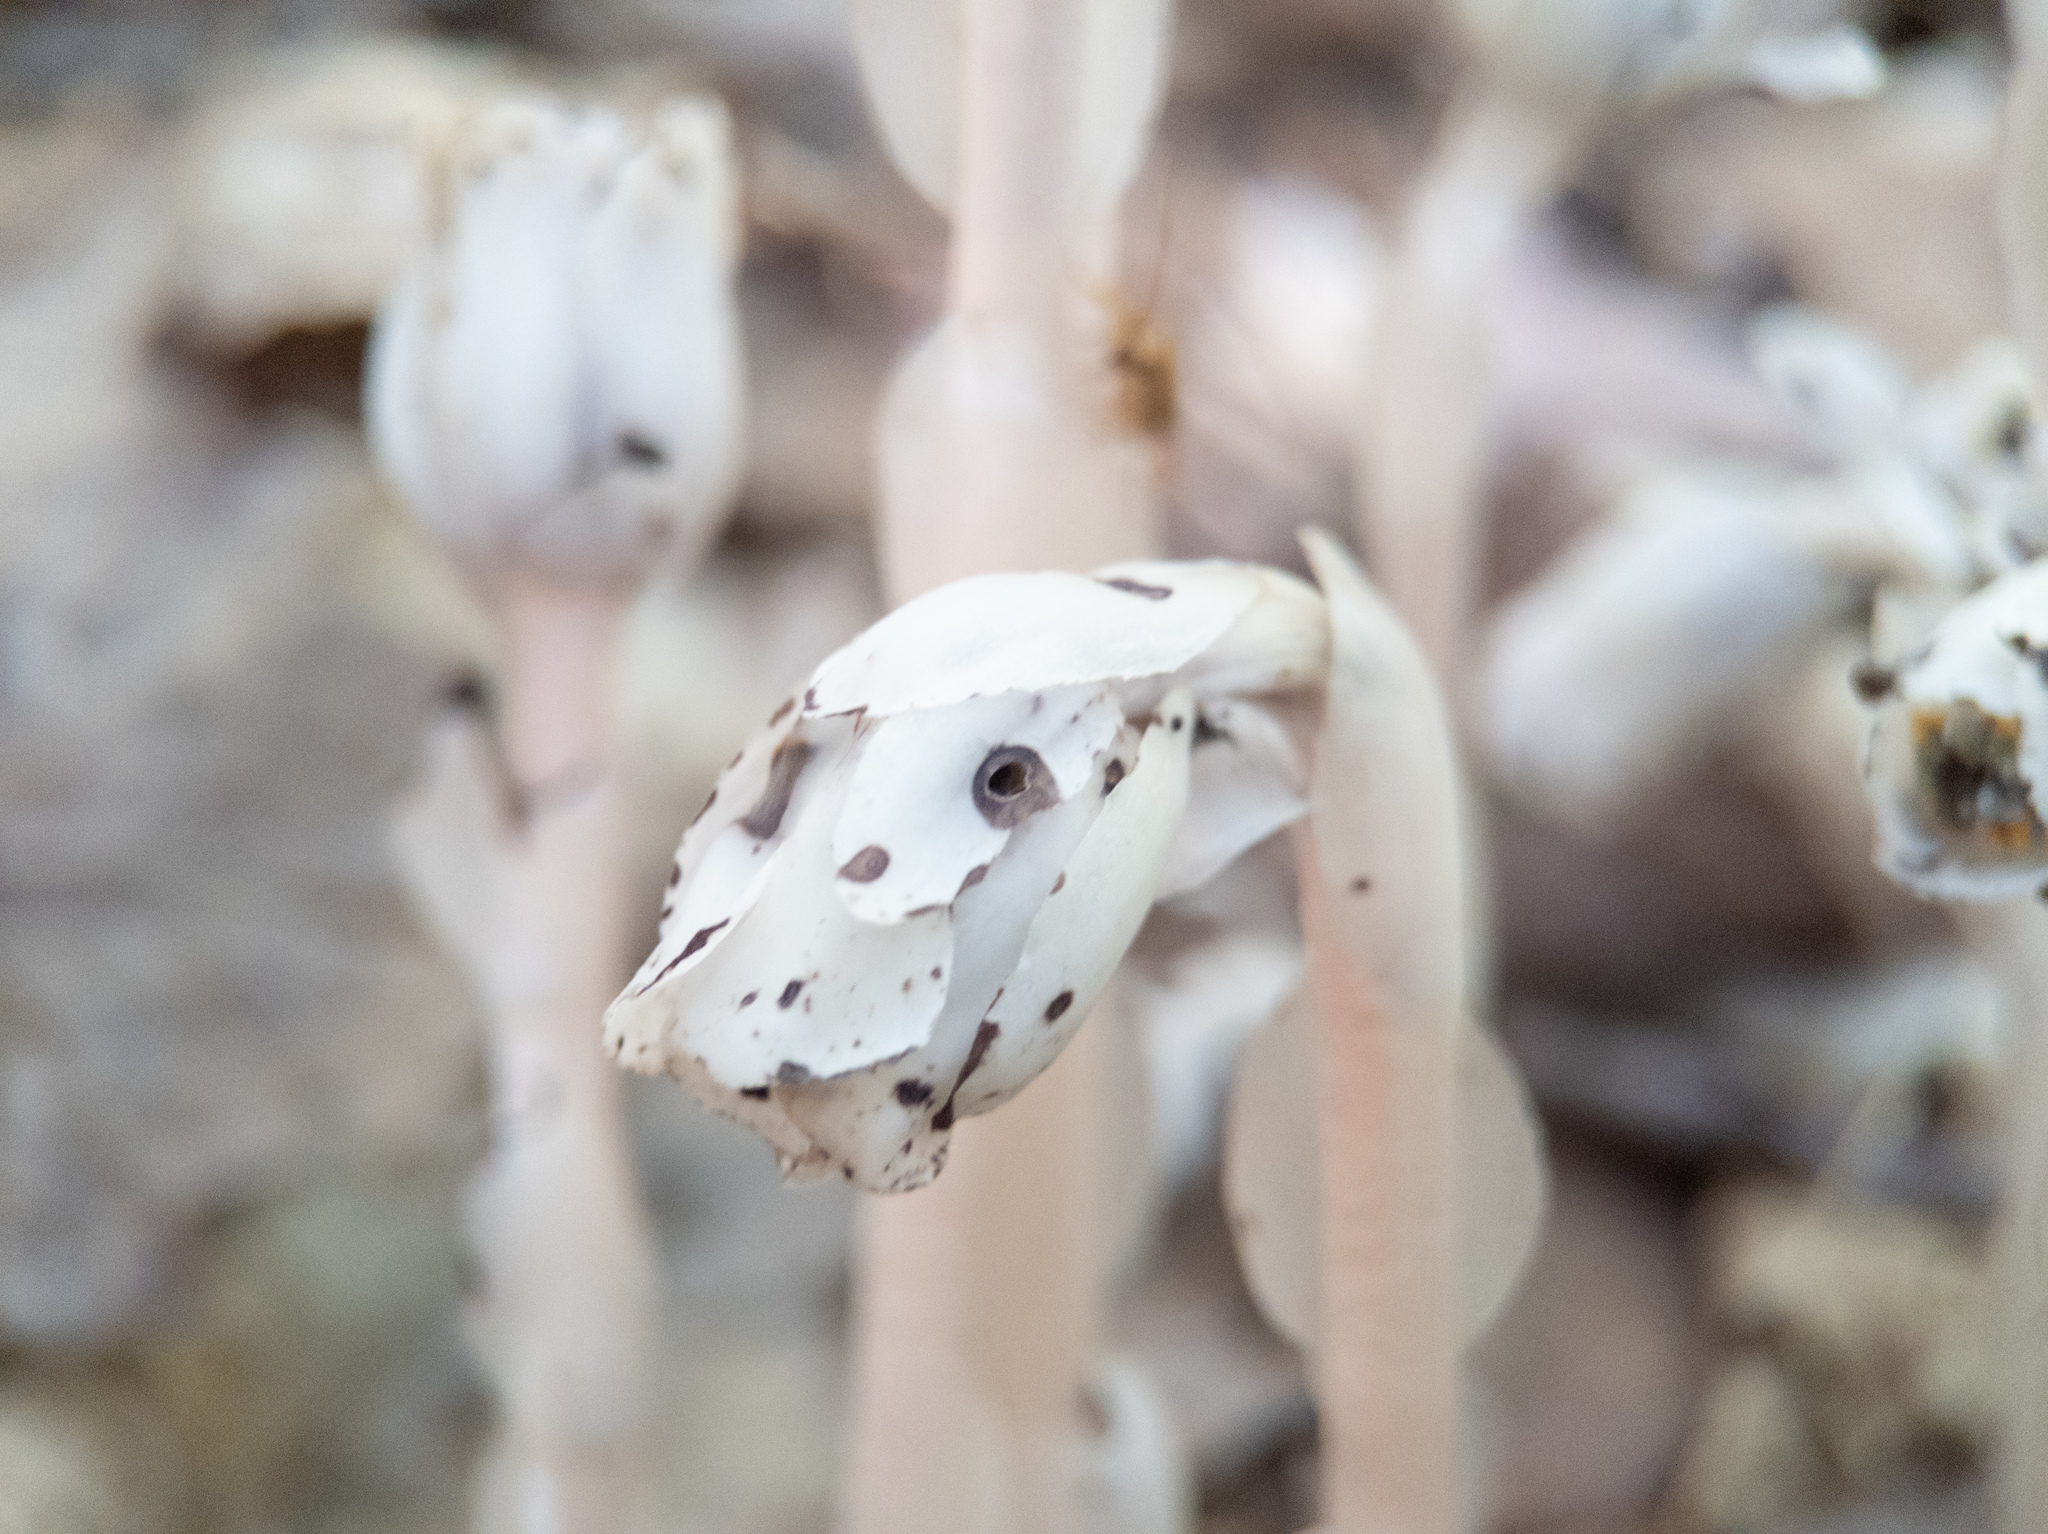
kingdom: Plantae
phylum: Tracheophyta
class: Magnoliopsida
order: Ericales
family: Ericaceae
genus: Monotropa
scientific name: Monotropa uniflora
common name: Convulsion root
